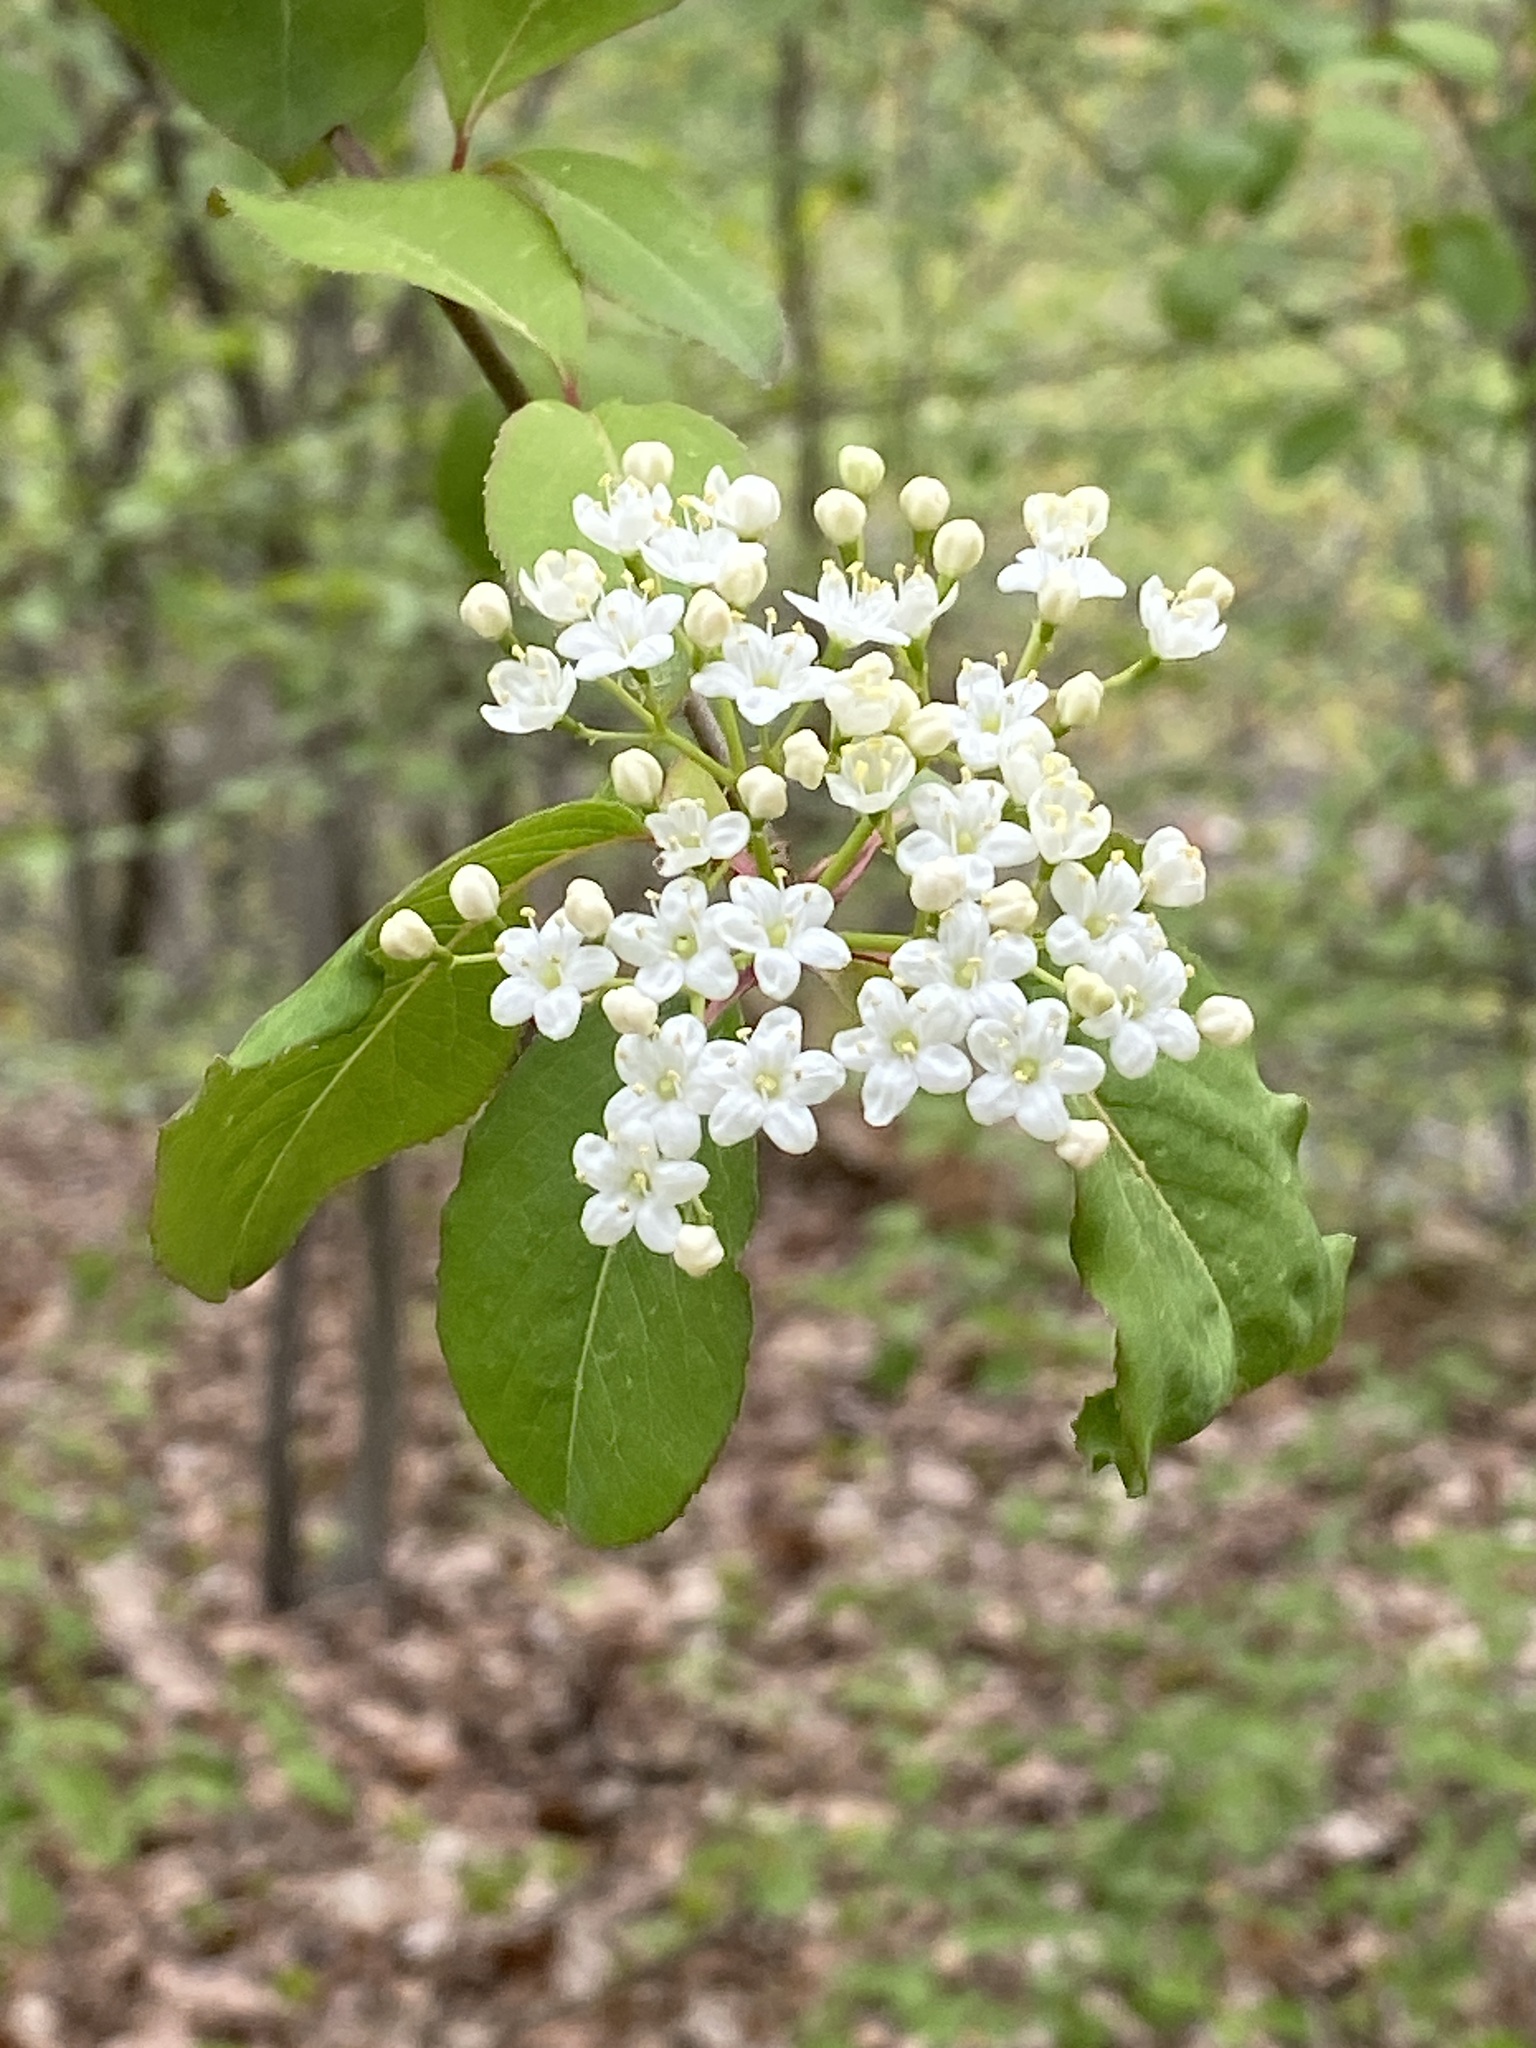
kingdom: Plantae
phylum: Tracheophyta
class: Magnoliopsida
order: Dipsacales
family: Viburnaceae
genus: Viburnum
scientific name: Viburnum prunifolium
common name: Black haw
